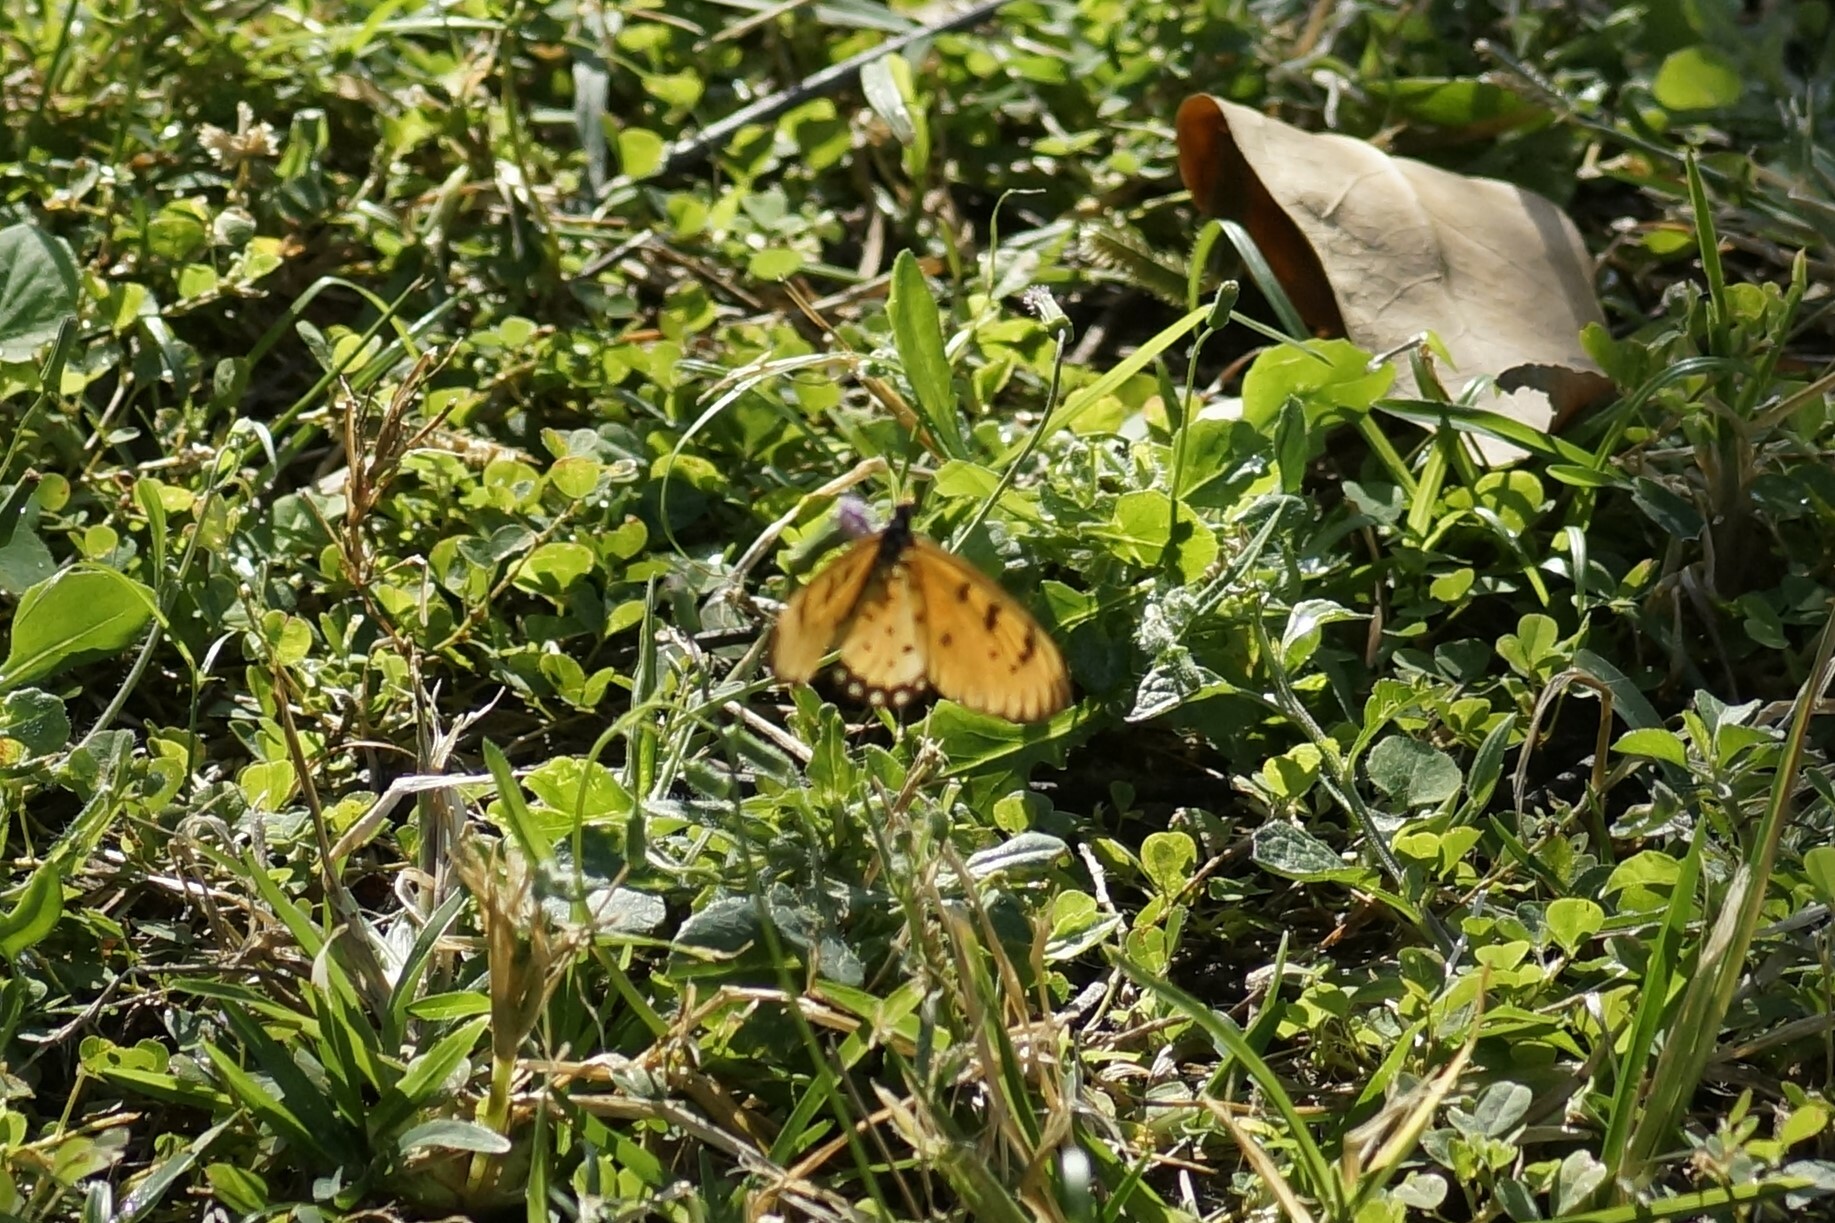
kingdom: Animalia
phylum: Arthropoda
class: Insecta
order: Lepidoptera
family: Nymphalidae
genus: Acraea
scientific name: Acraea terpsicore
